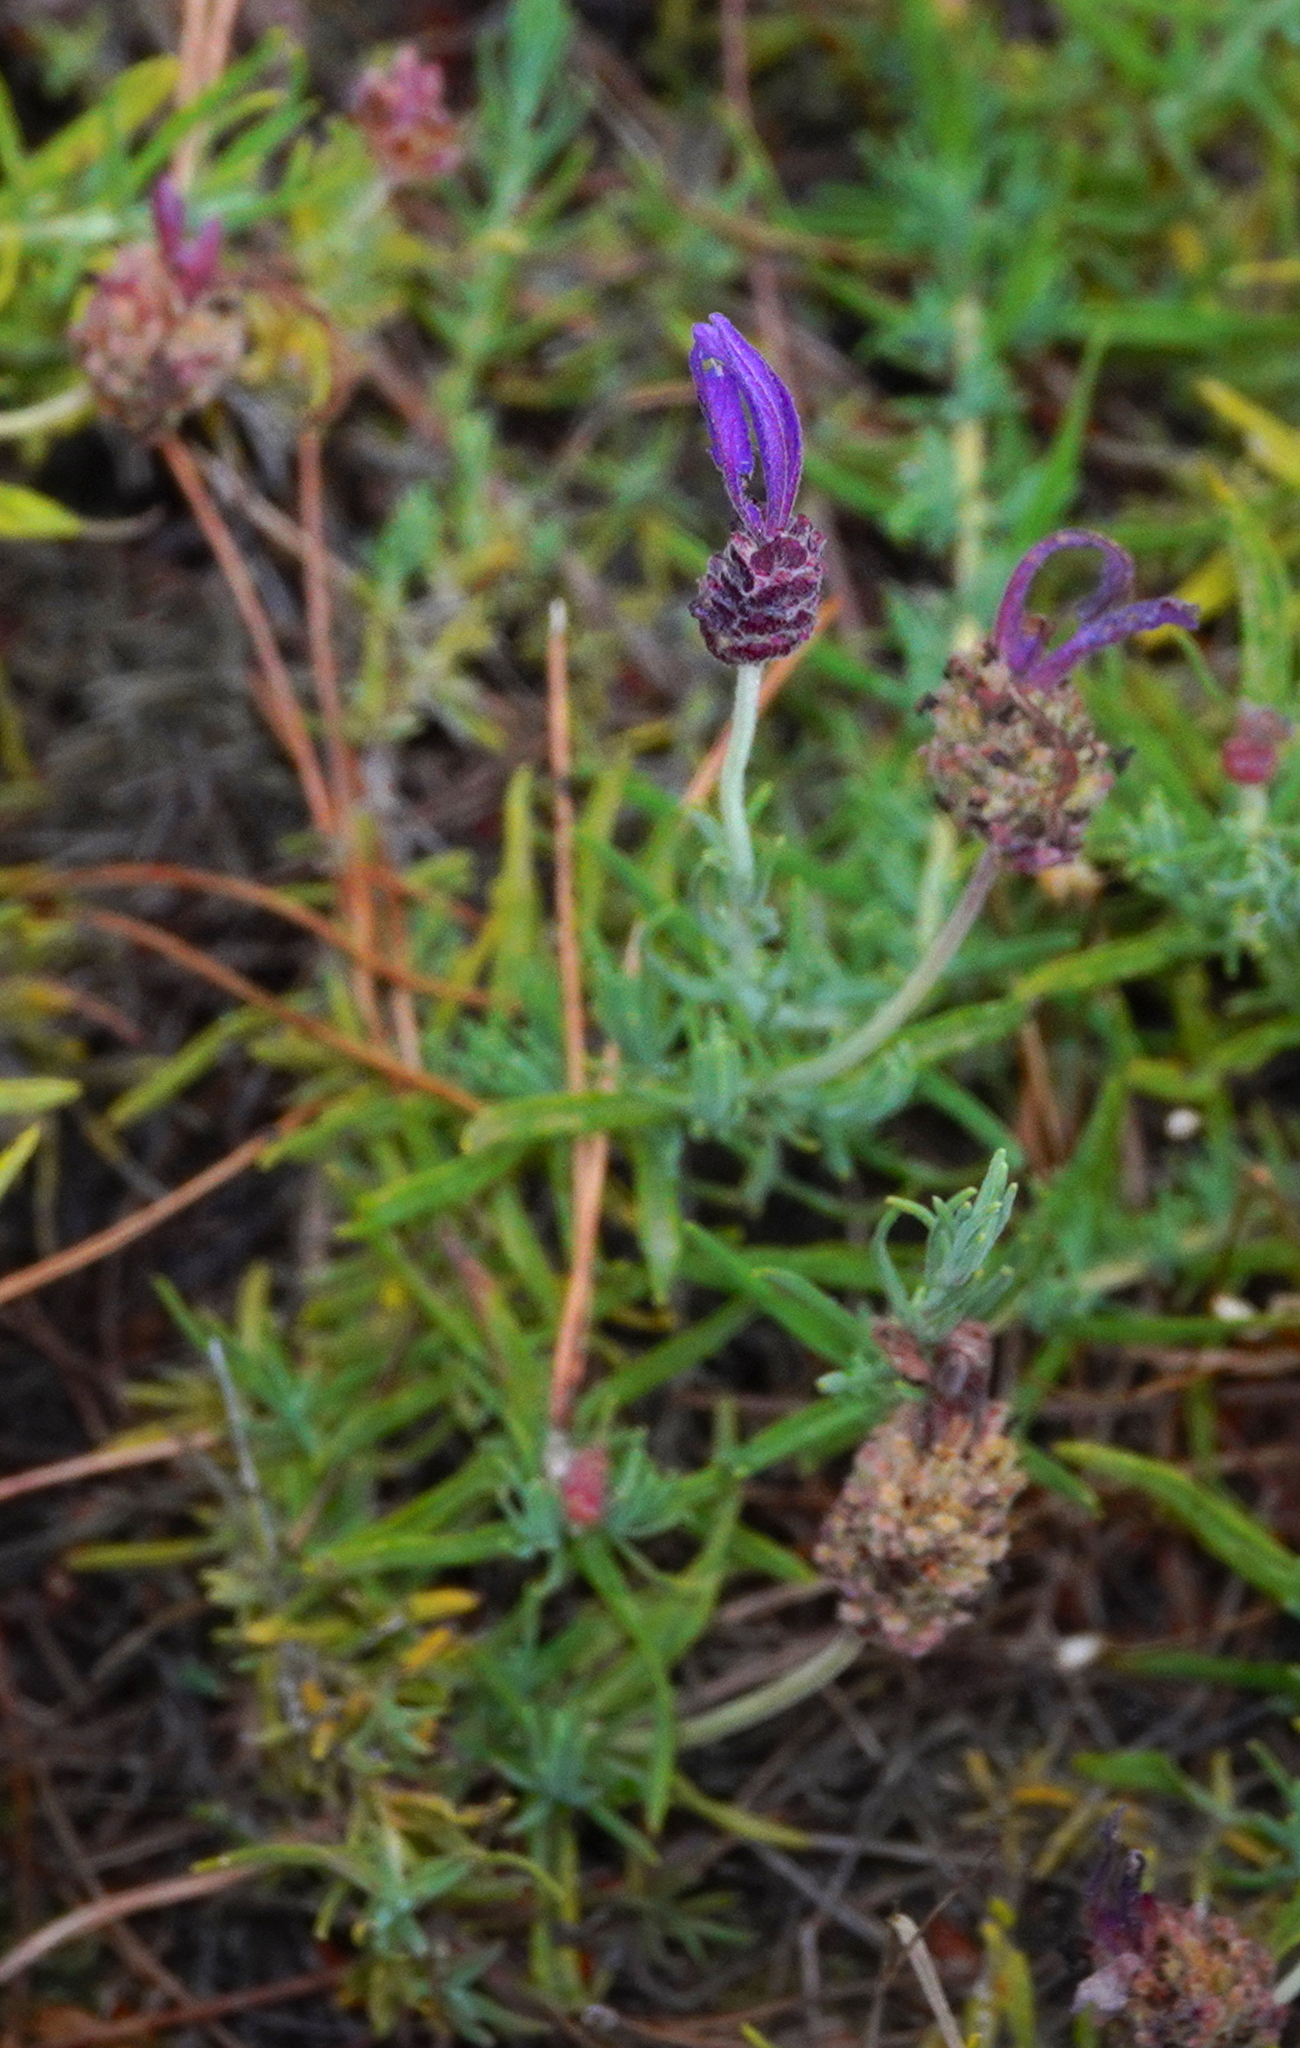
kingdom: Plantae
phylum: Tracheophyta
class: Magnoliopsida
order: Lamiales
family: Lamiaceae
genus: Lavandula
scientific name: Lavandula pedunculata
